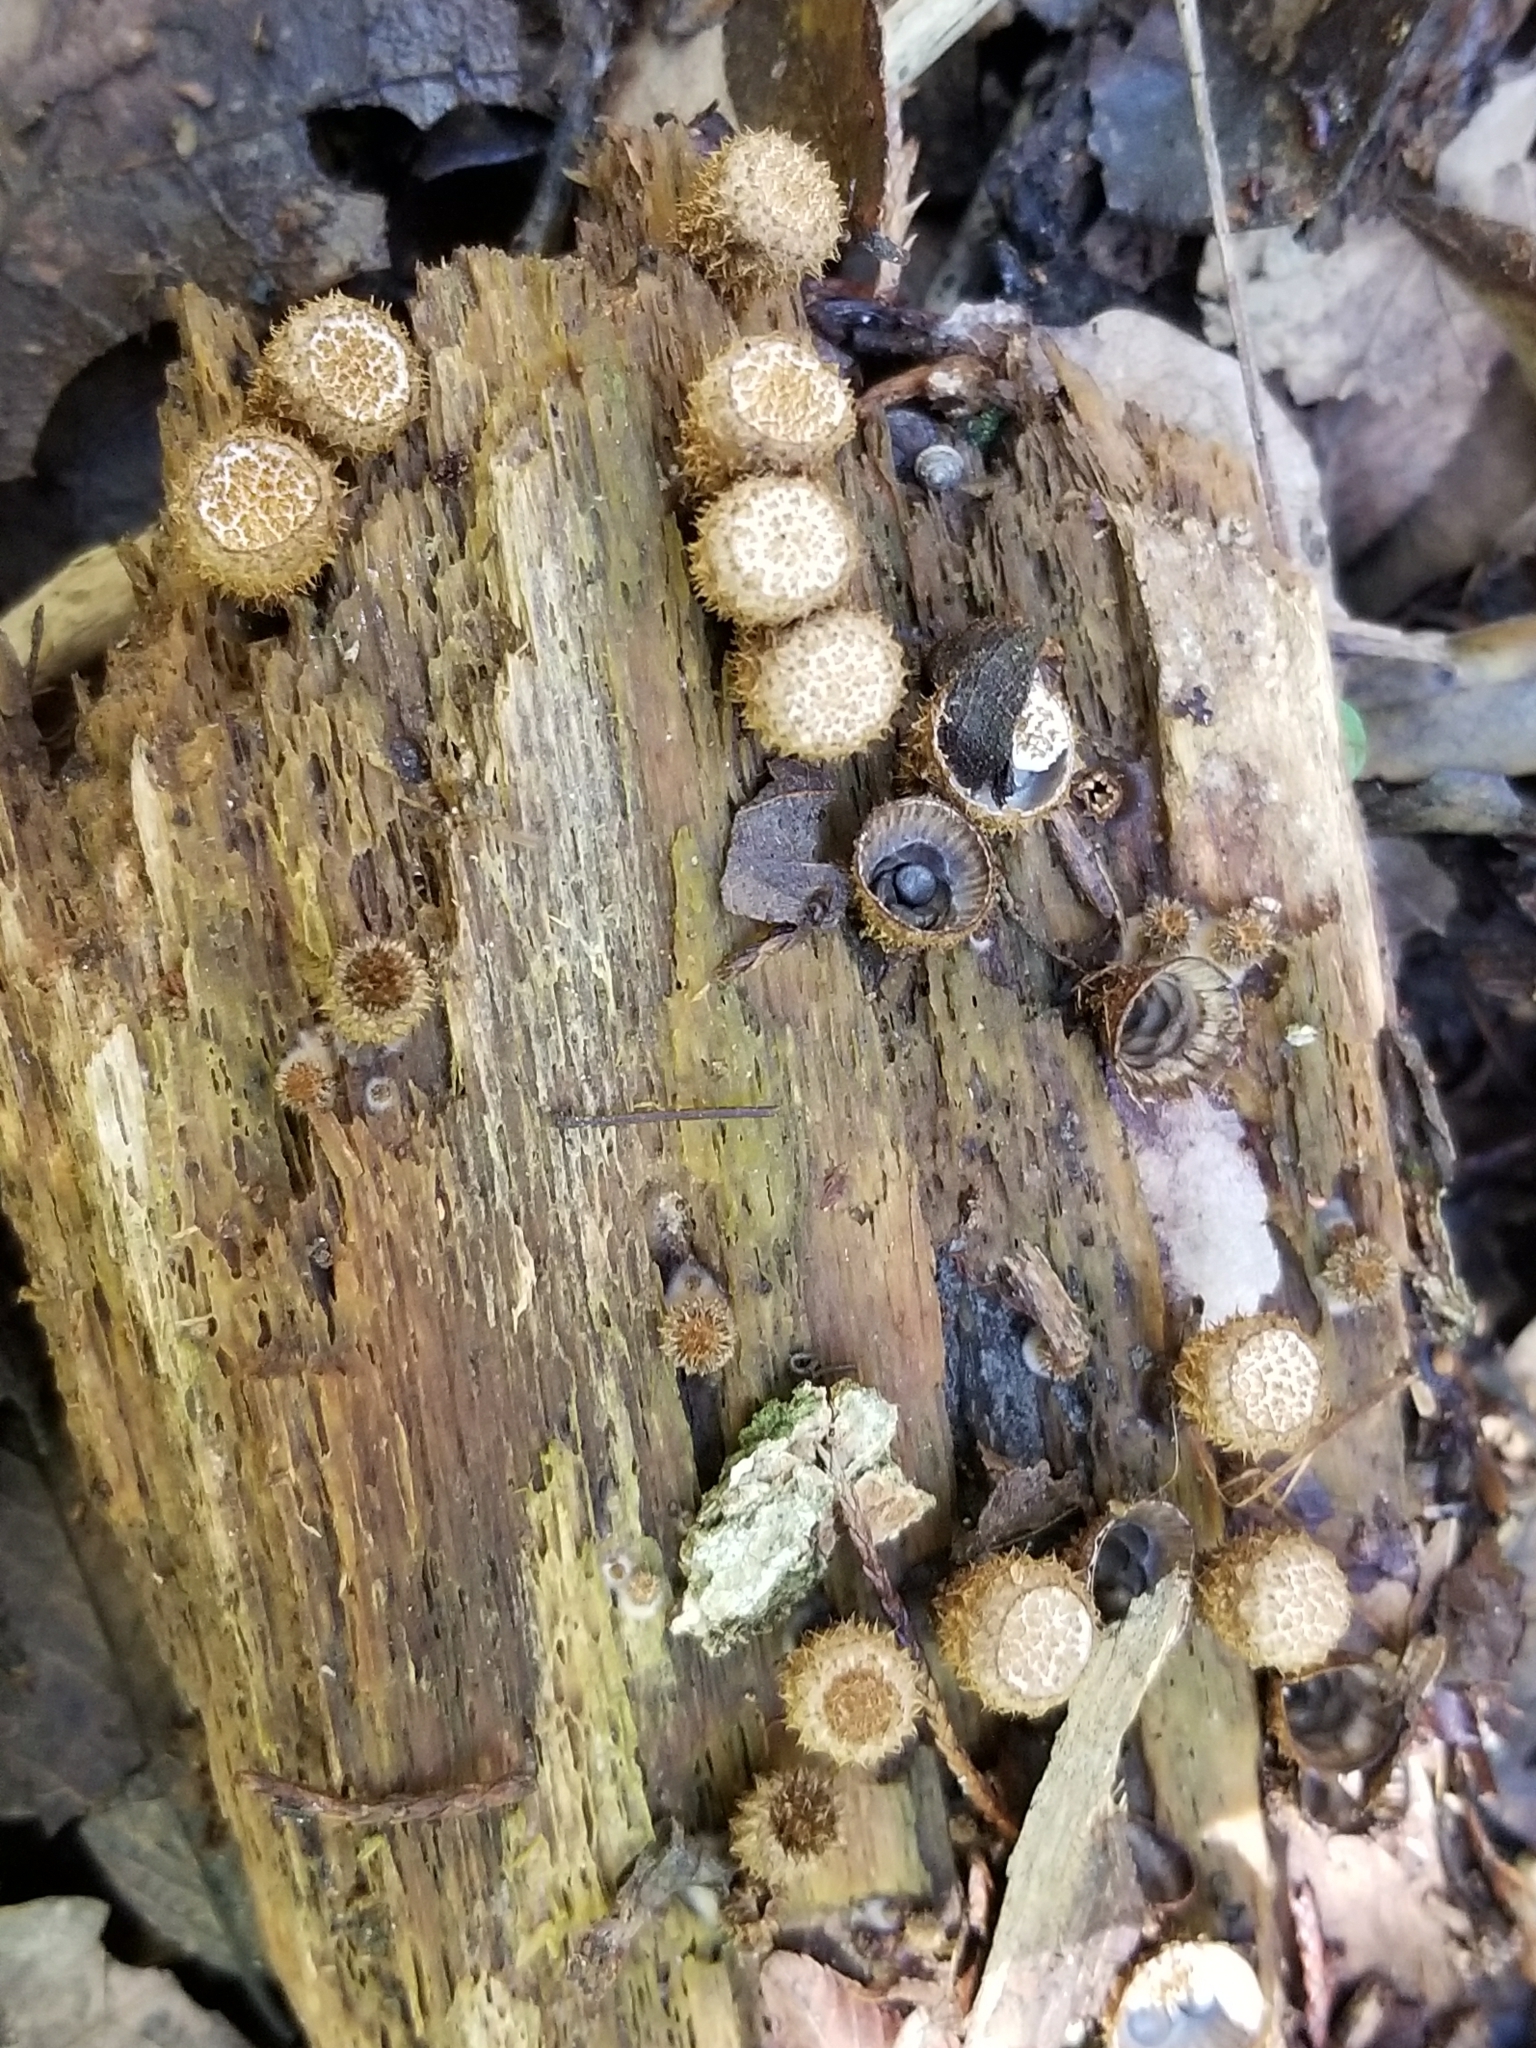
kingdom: Fungi
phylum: Basidiomycota
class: Agaricomycetes
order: Agaricales
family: Agaricaceae
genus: Cyathus
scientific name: Cyathus striatus
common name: Fluted bird's nest
